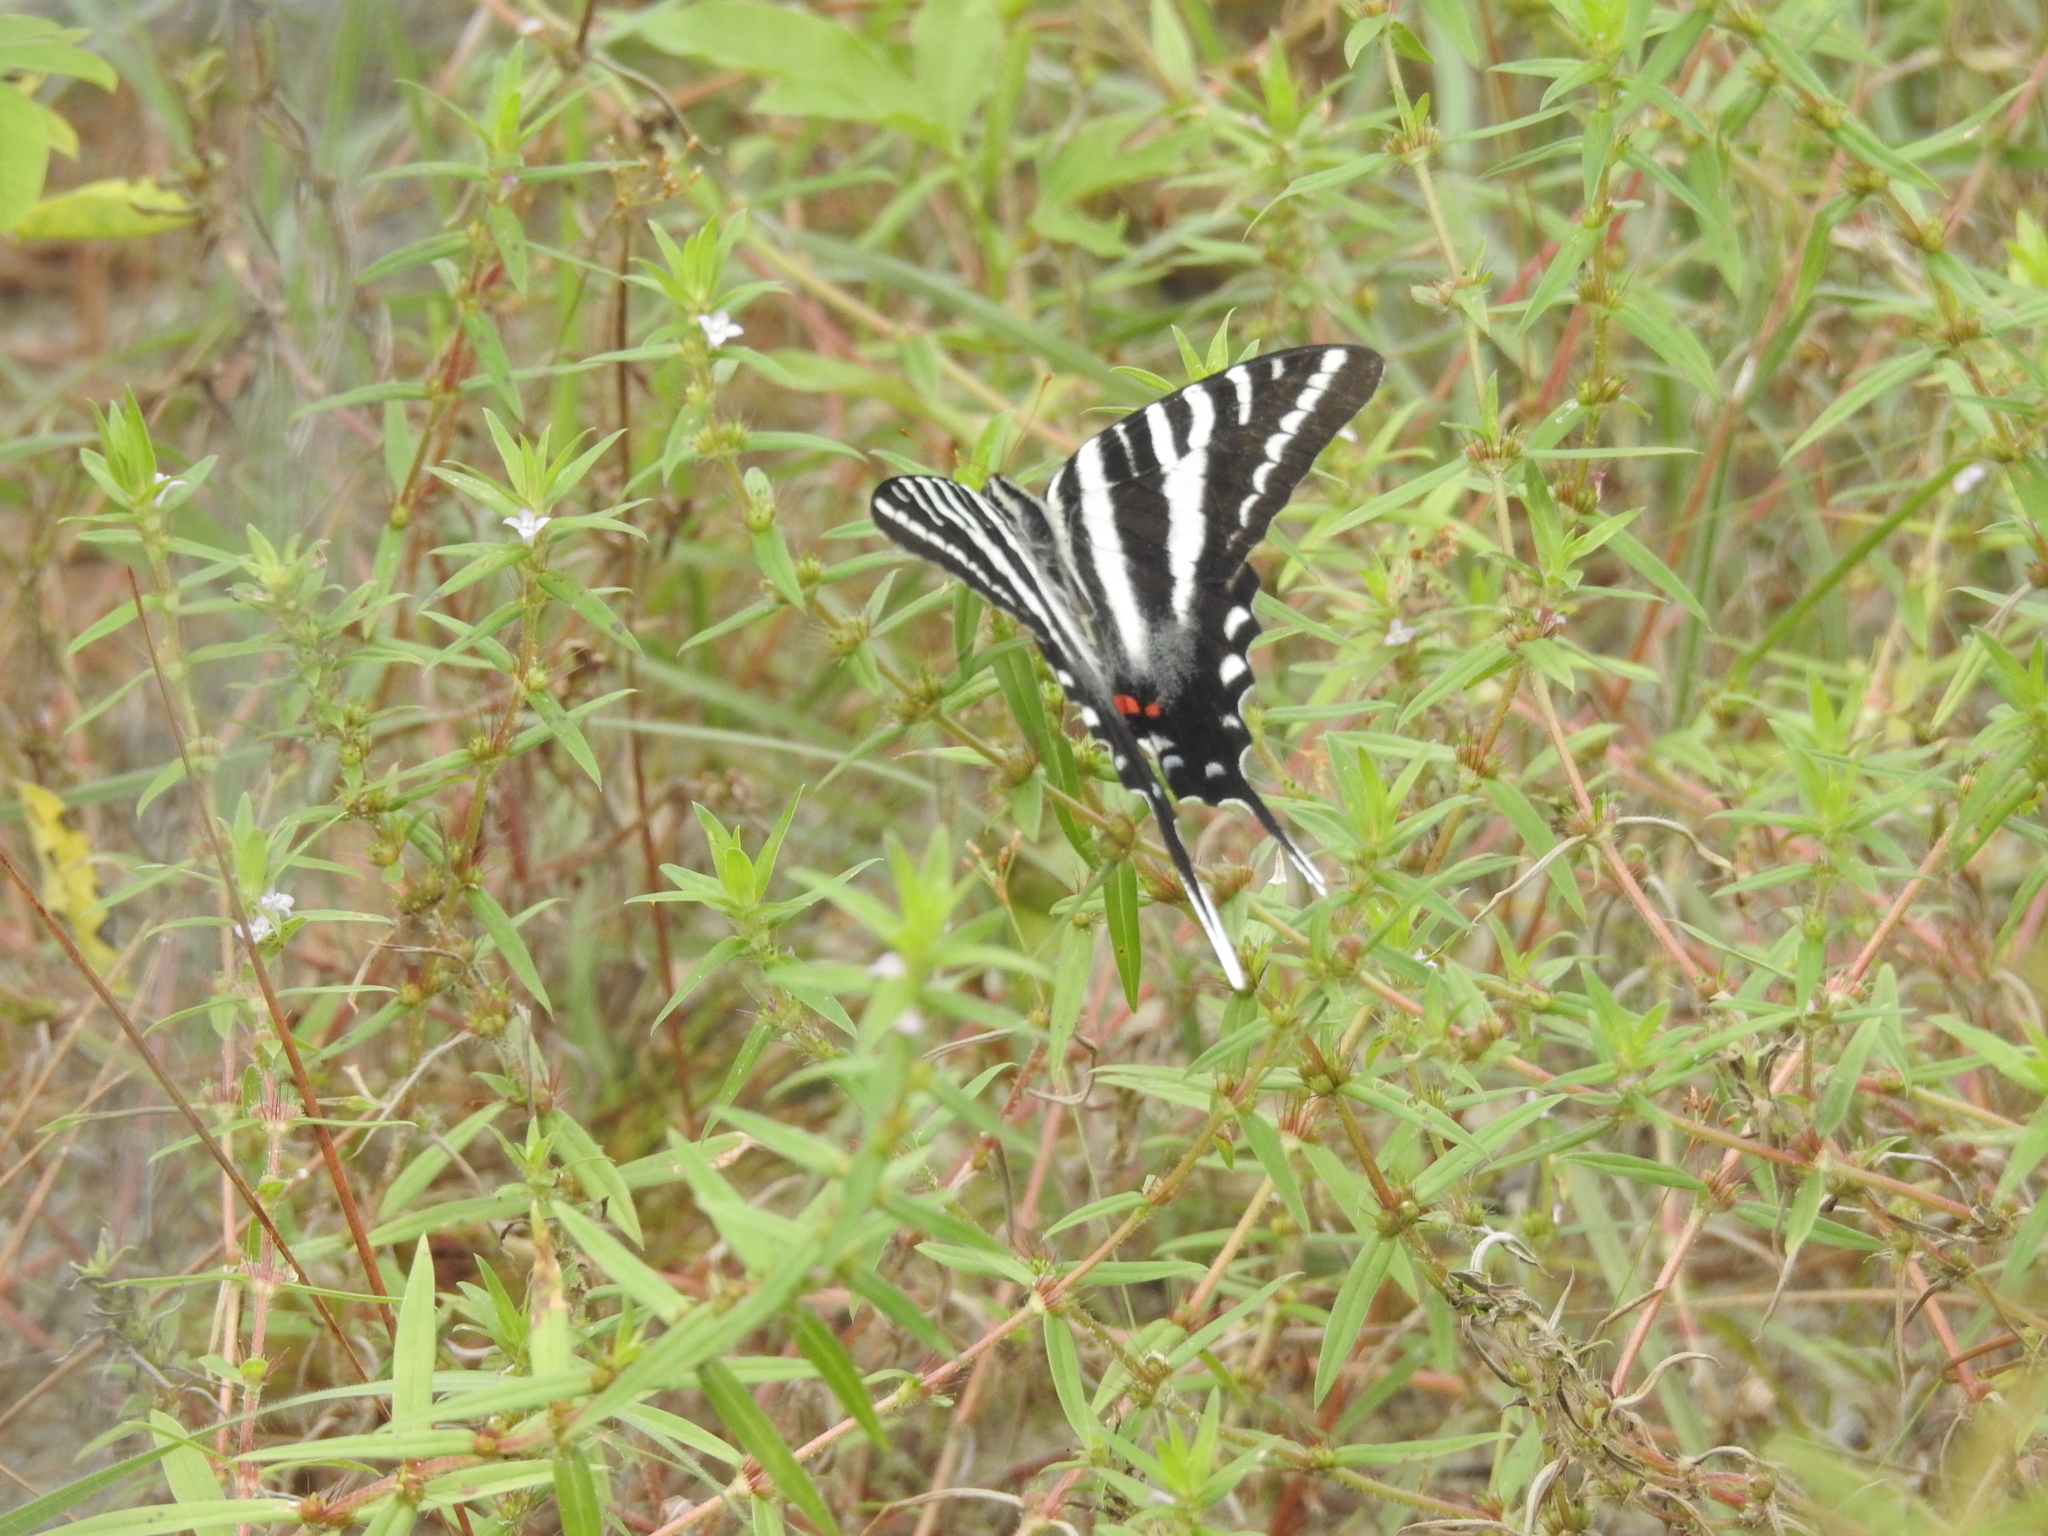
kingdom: Animalia
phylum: Arthropoda
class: Insecta
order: Lepidoptera
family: Papilionidae
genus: Protographium
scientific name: Protographium marcellus
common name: Zebra swallowtail
